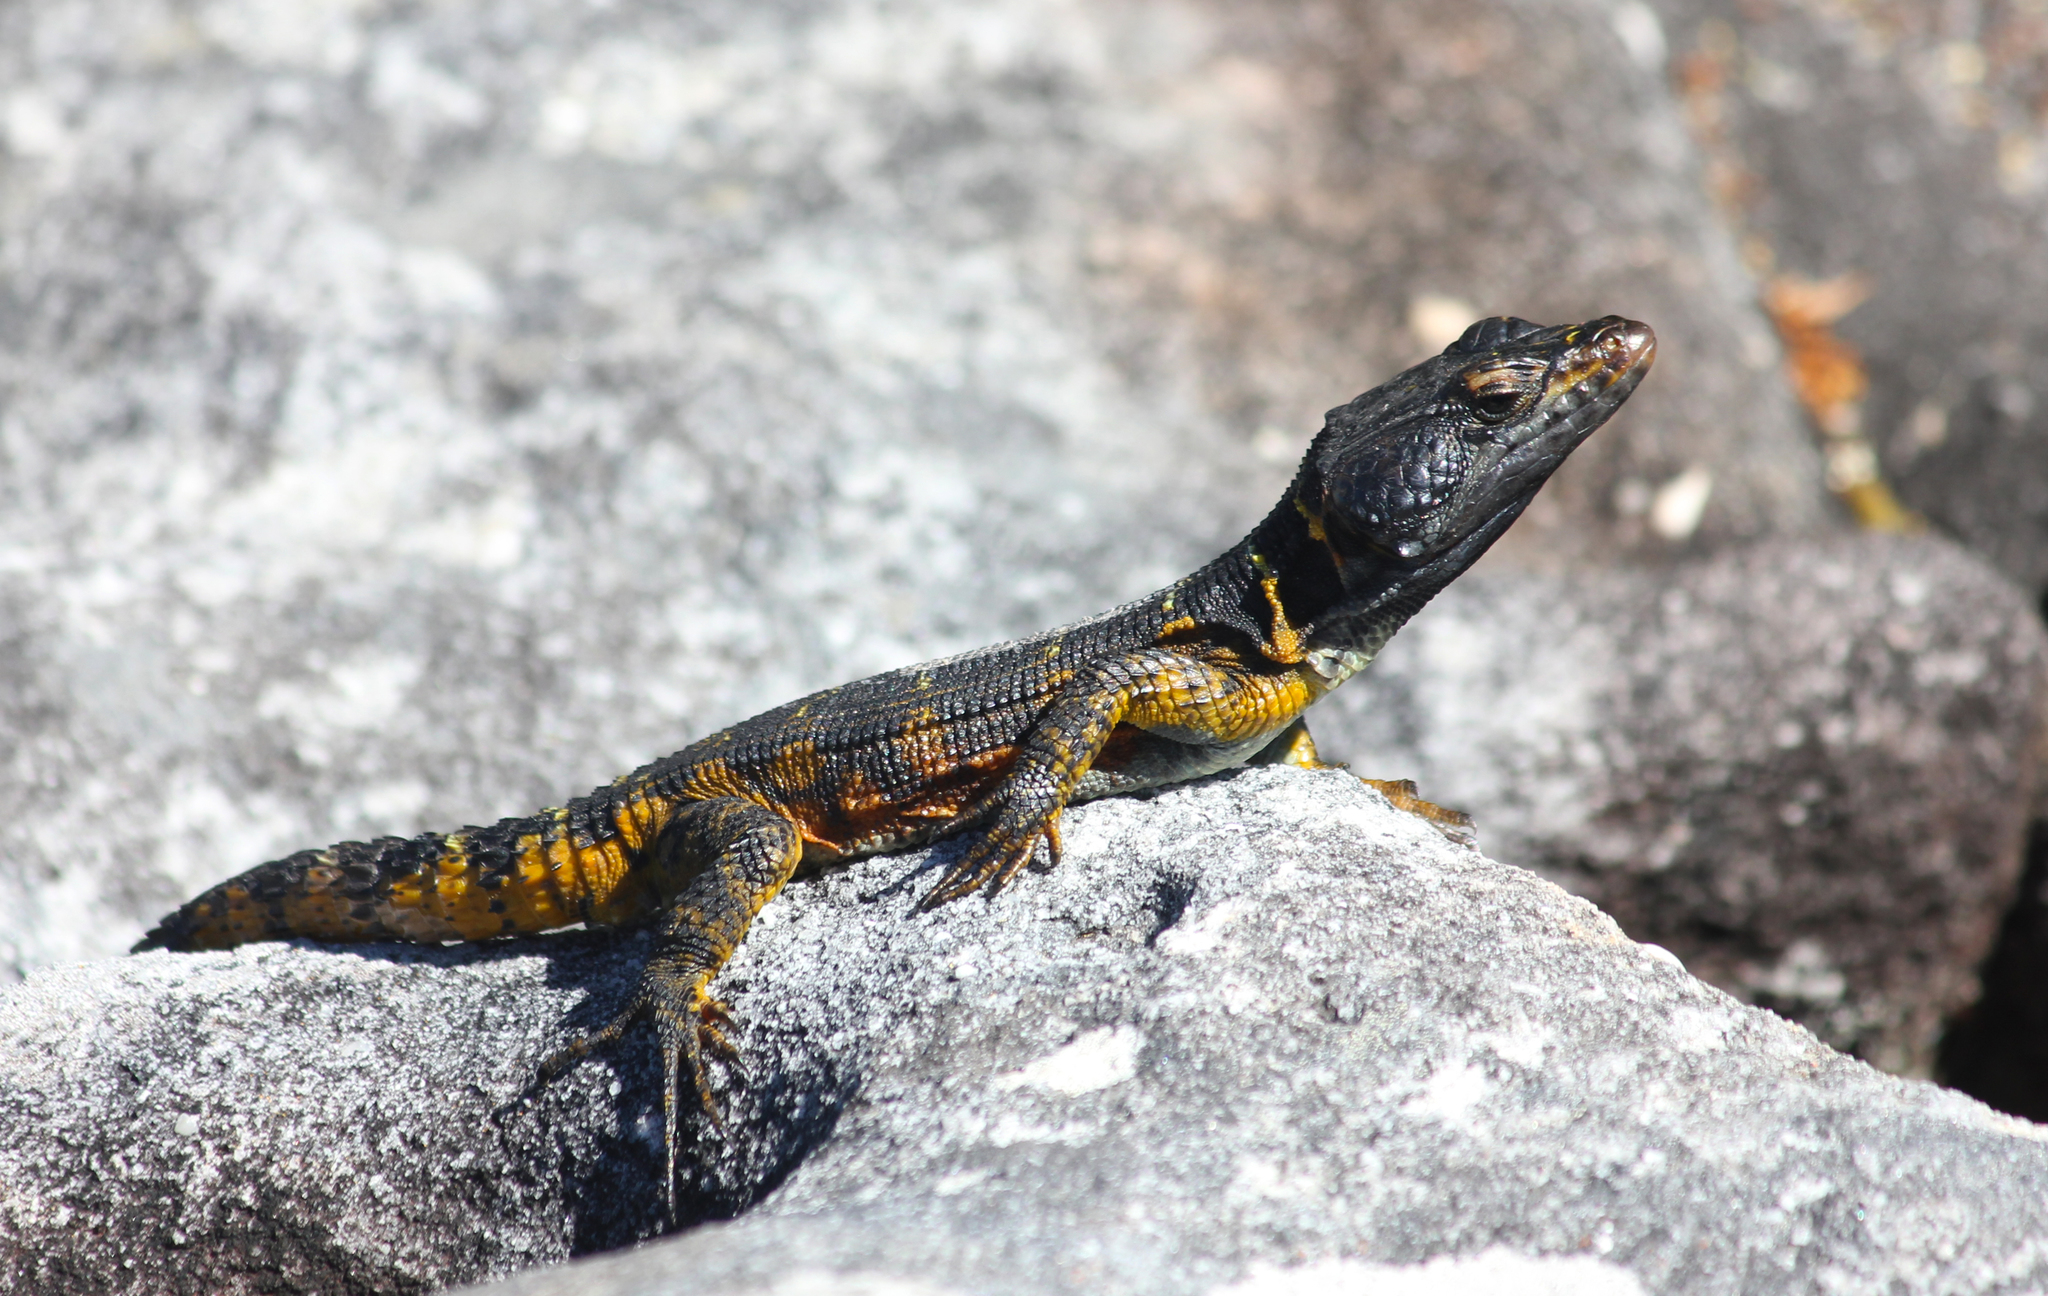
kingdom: Animalia
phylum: Chordata
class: Squamata
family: Cordylidae
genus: Pseudocordylus
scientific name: Pseudocordylus microlepidotus
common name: Cape crag lizard
